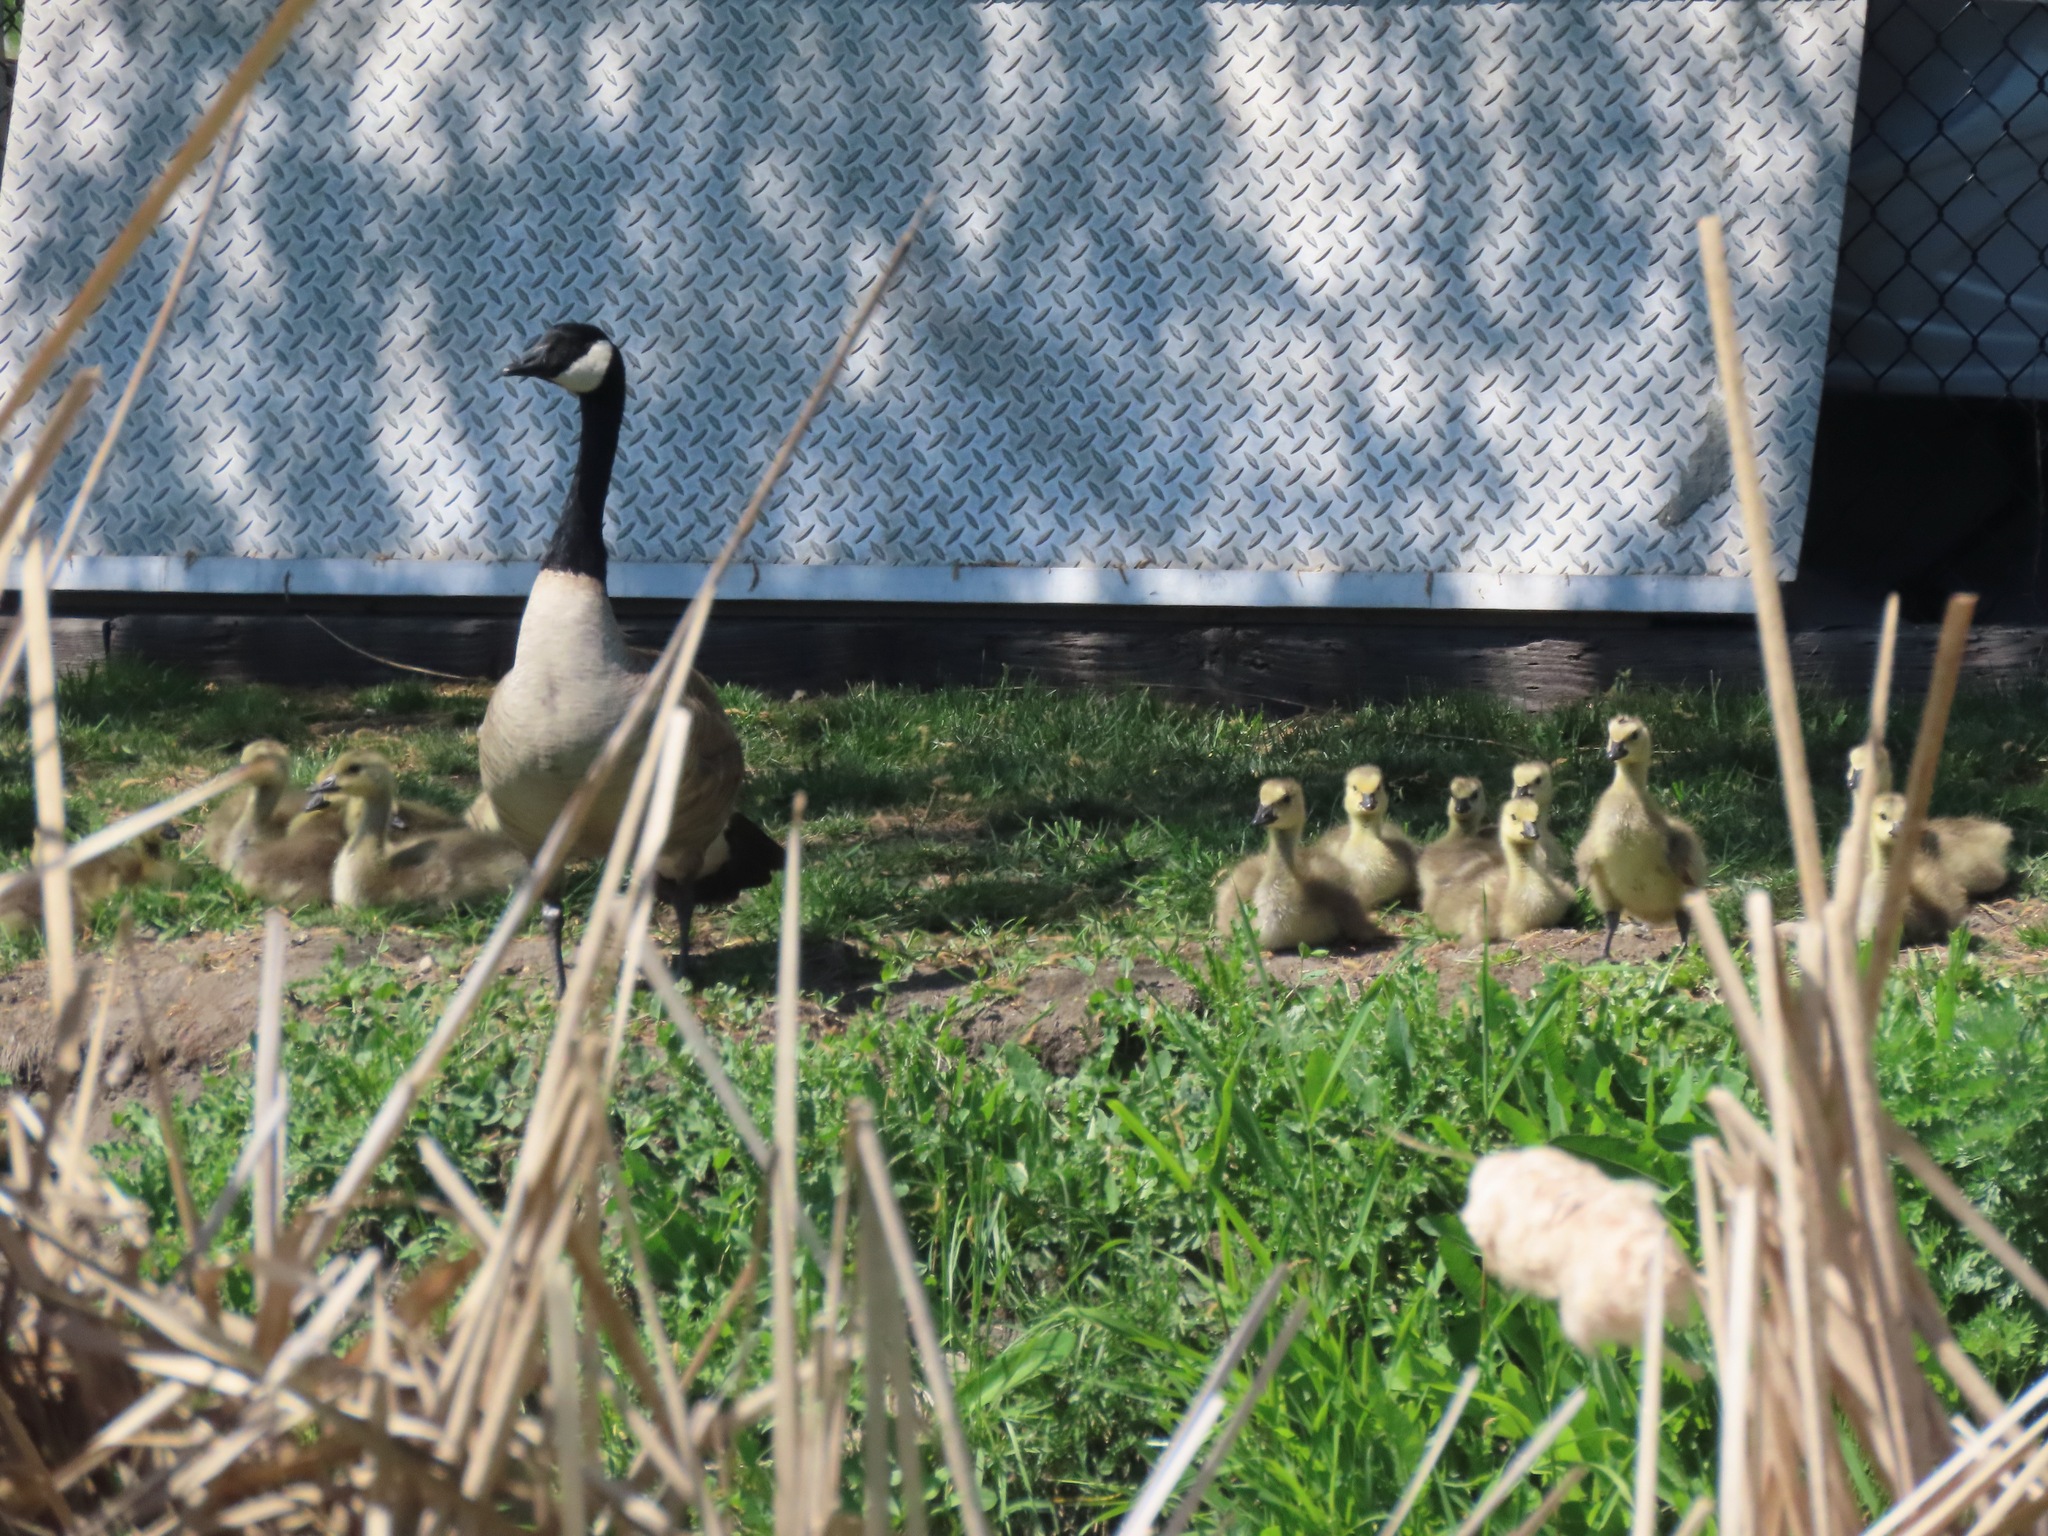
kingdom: Animalia
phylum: Chordata
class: Aves
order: Anseriformes
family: Anatidae
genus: Branta
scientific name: Branta canadensis
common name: Canada goose
